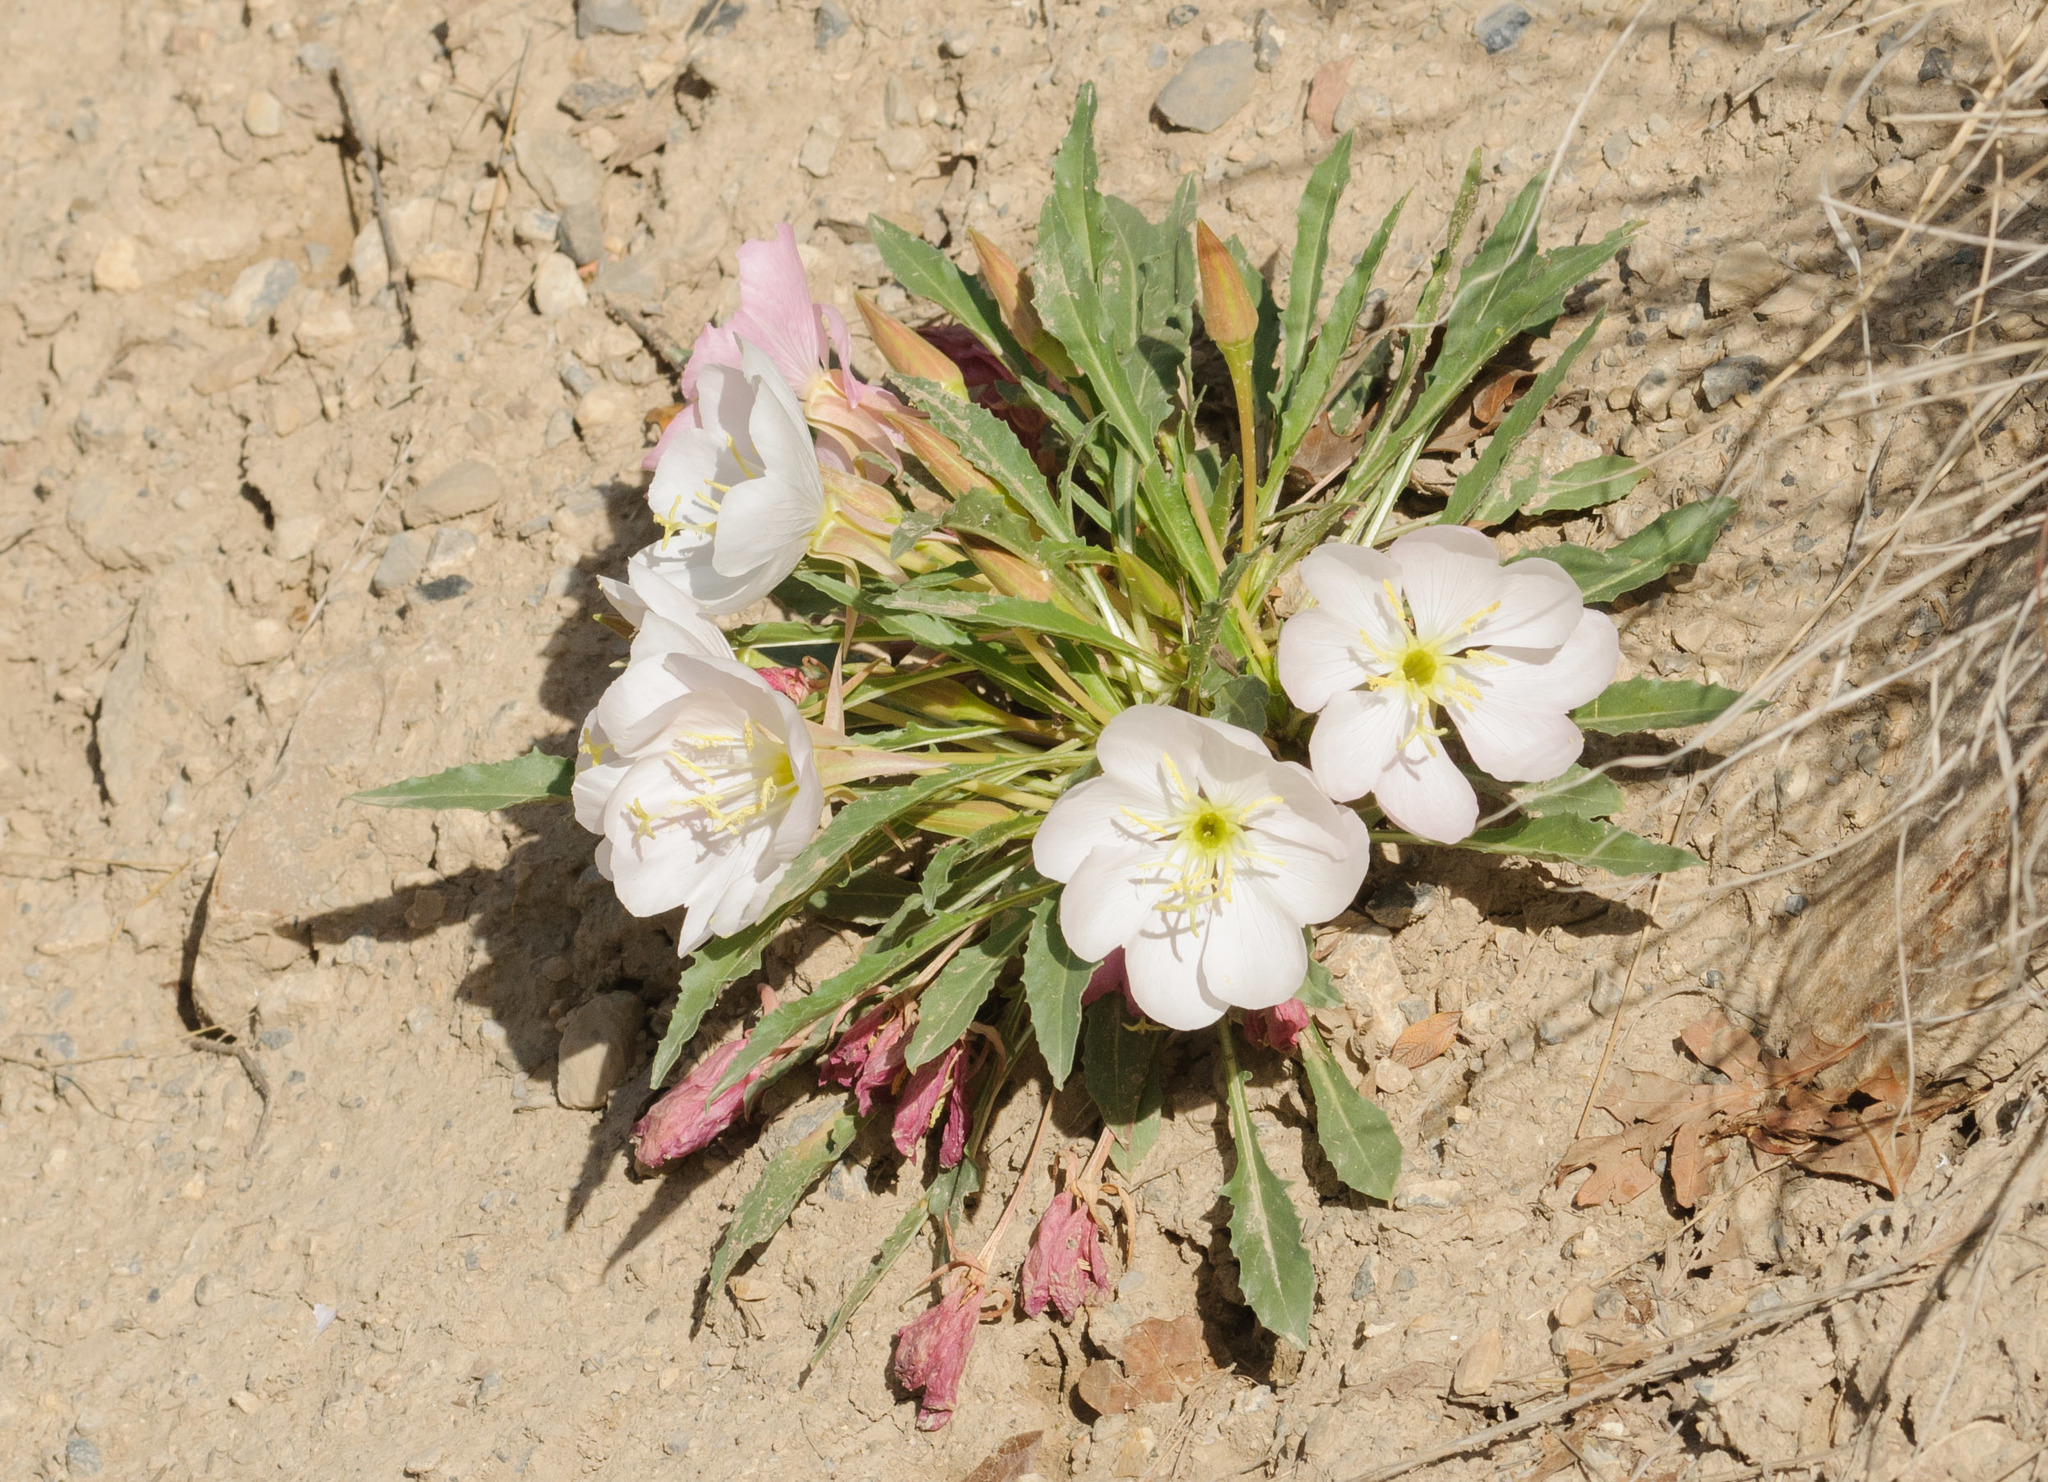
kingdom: Plantae
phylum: Tracheophyta
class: Magnoliopsida
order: Myrtales
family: Onagraceae
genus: Oenothera
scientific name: Oenothera cespitosa
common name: Tufted evening-primrose
